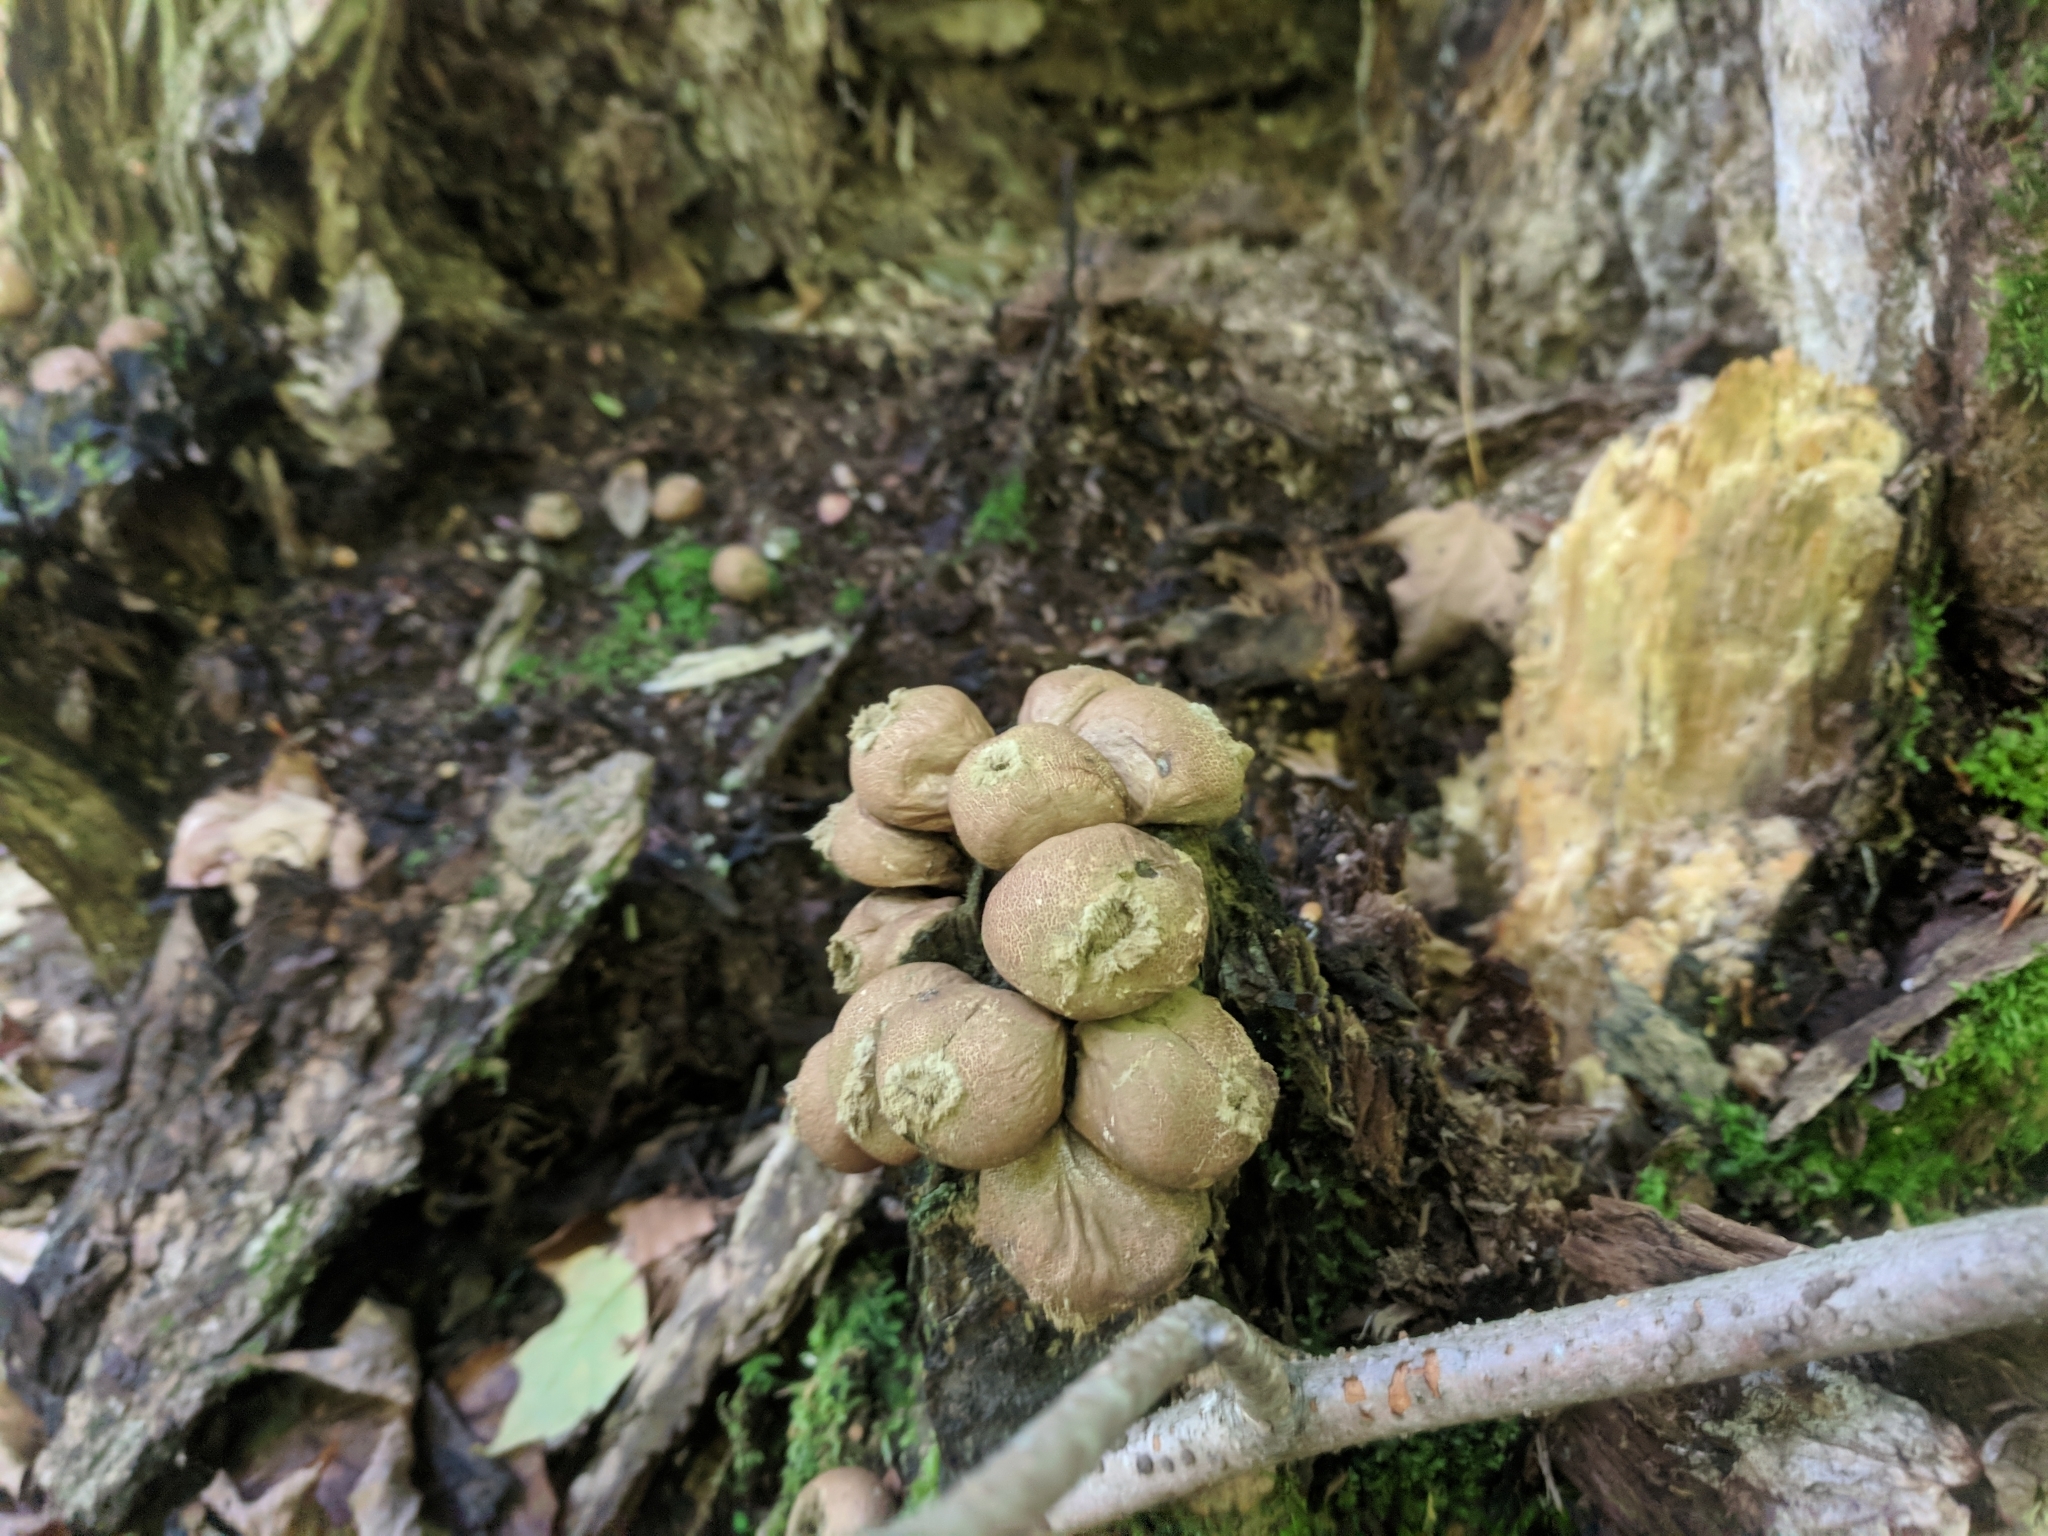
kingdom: Fungi
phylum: Basidiomycota
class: Agaricomycetes
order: Agaricales
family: Lycoperdaceae
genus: Apioperdon
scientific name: Apioperdon pyriforme
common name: Pear-shaped puffball
